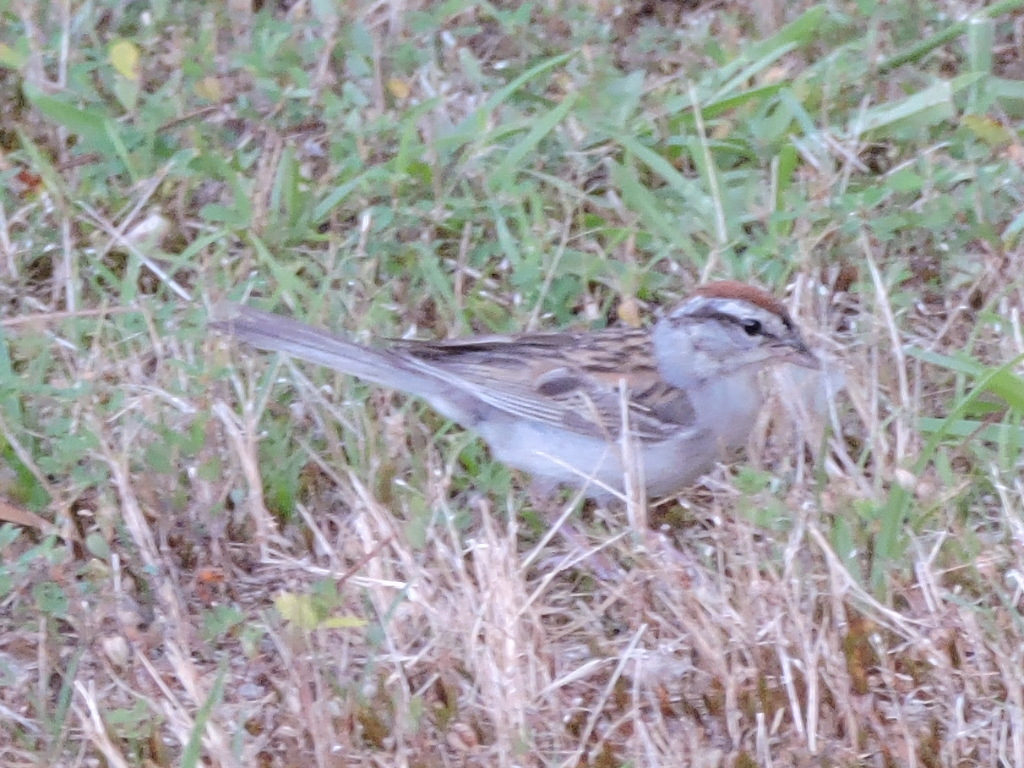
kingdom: Animalia
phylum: Chordata
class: Aves
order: Passeriformes
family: Passerellidae
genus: Spizella
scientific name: Spizella passerina
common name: Chipping sparrow
